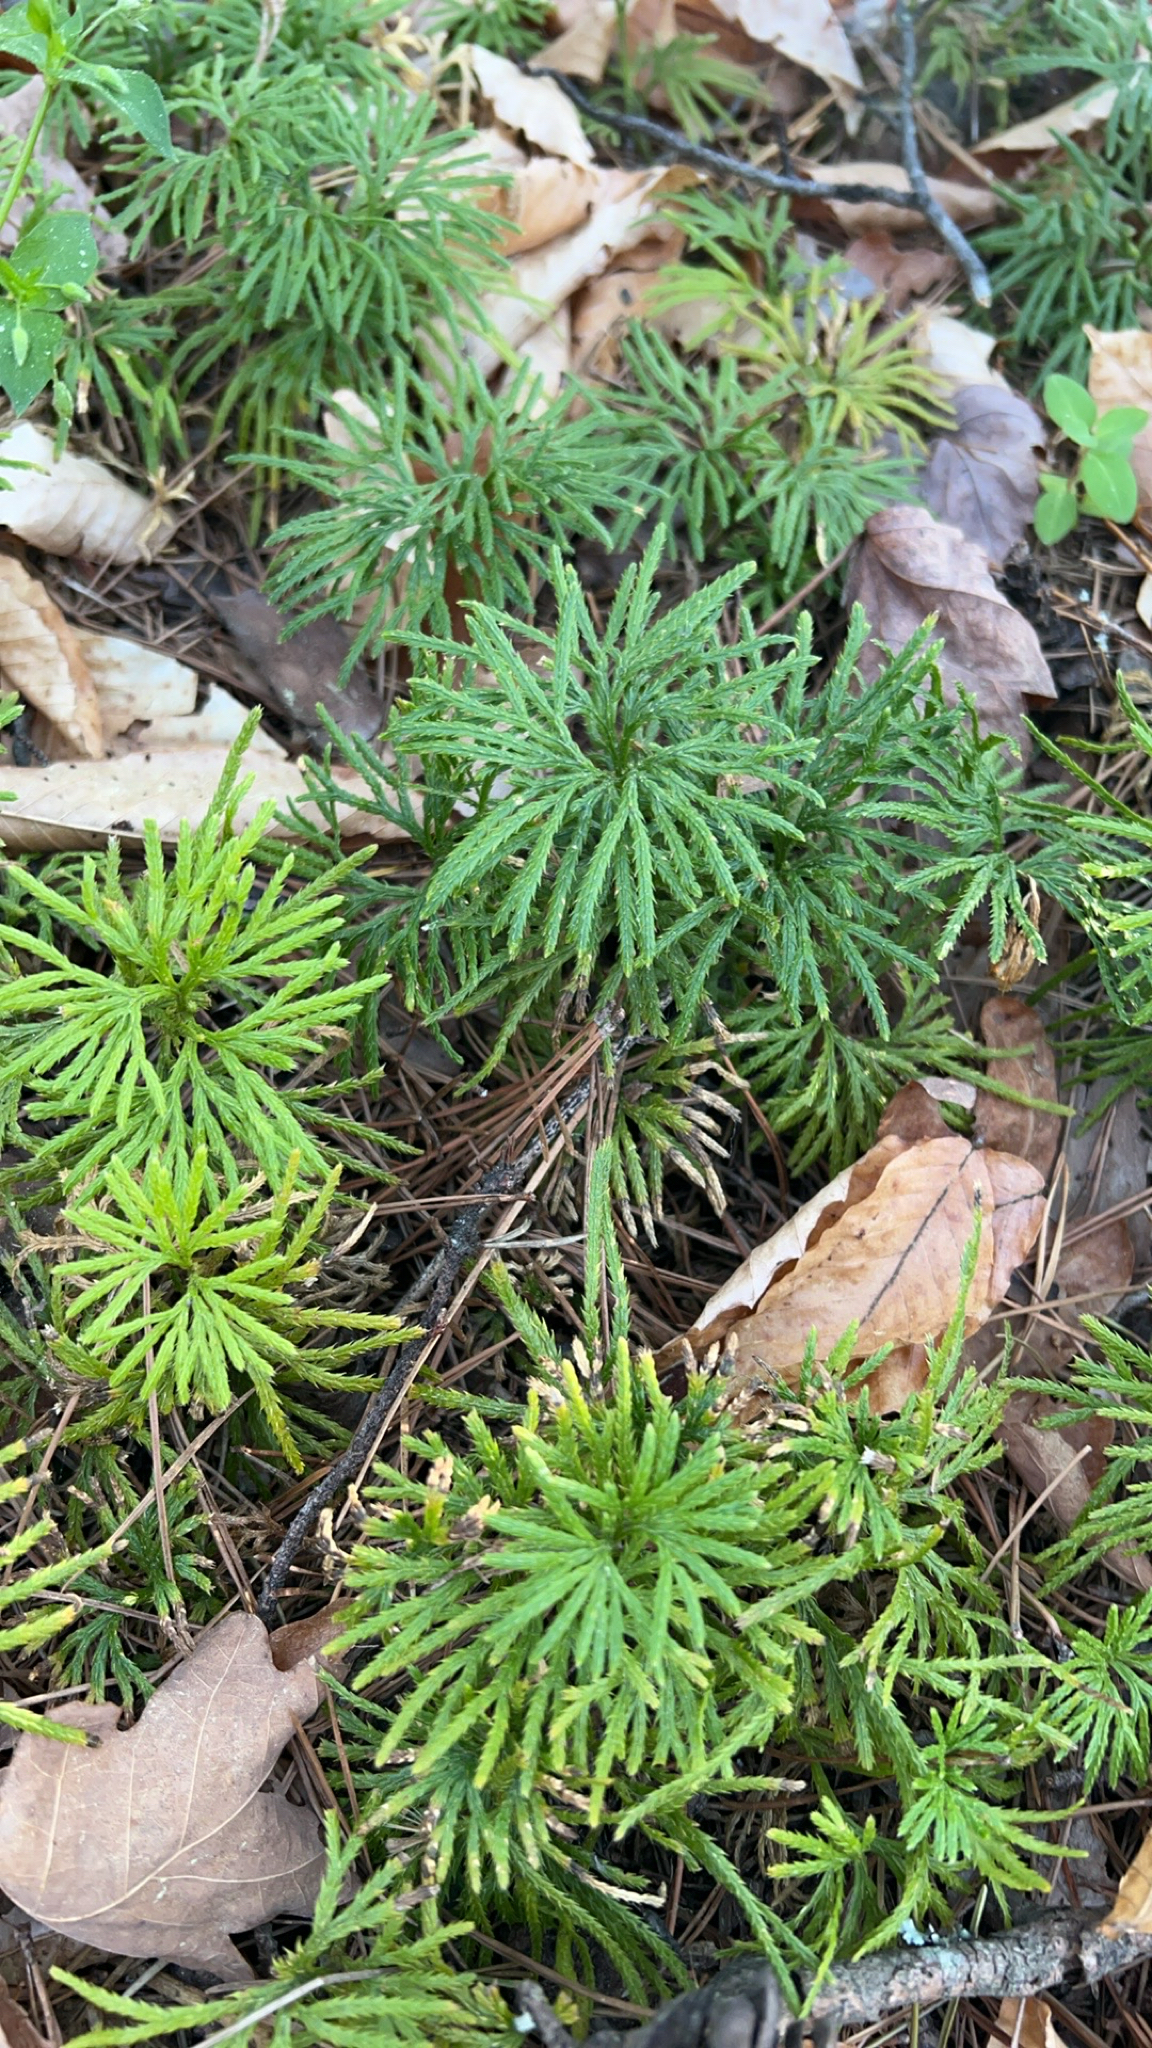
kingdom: Plantae
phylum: Tracheophyta
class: Lycopodiopsida
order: Lycopodiales
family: Lycopodiaceae
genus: Diphasiastrum
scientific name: Diphasiastrum digitatum
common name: Southern running-pine
